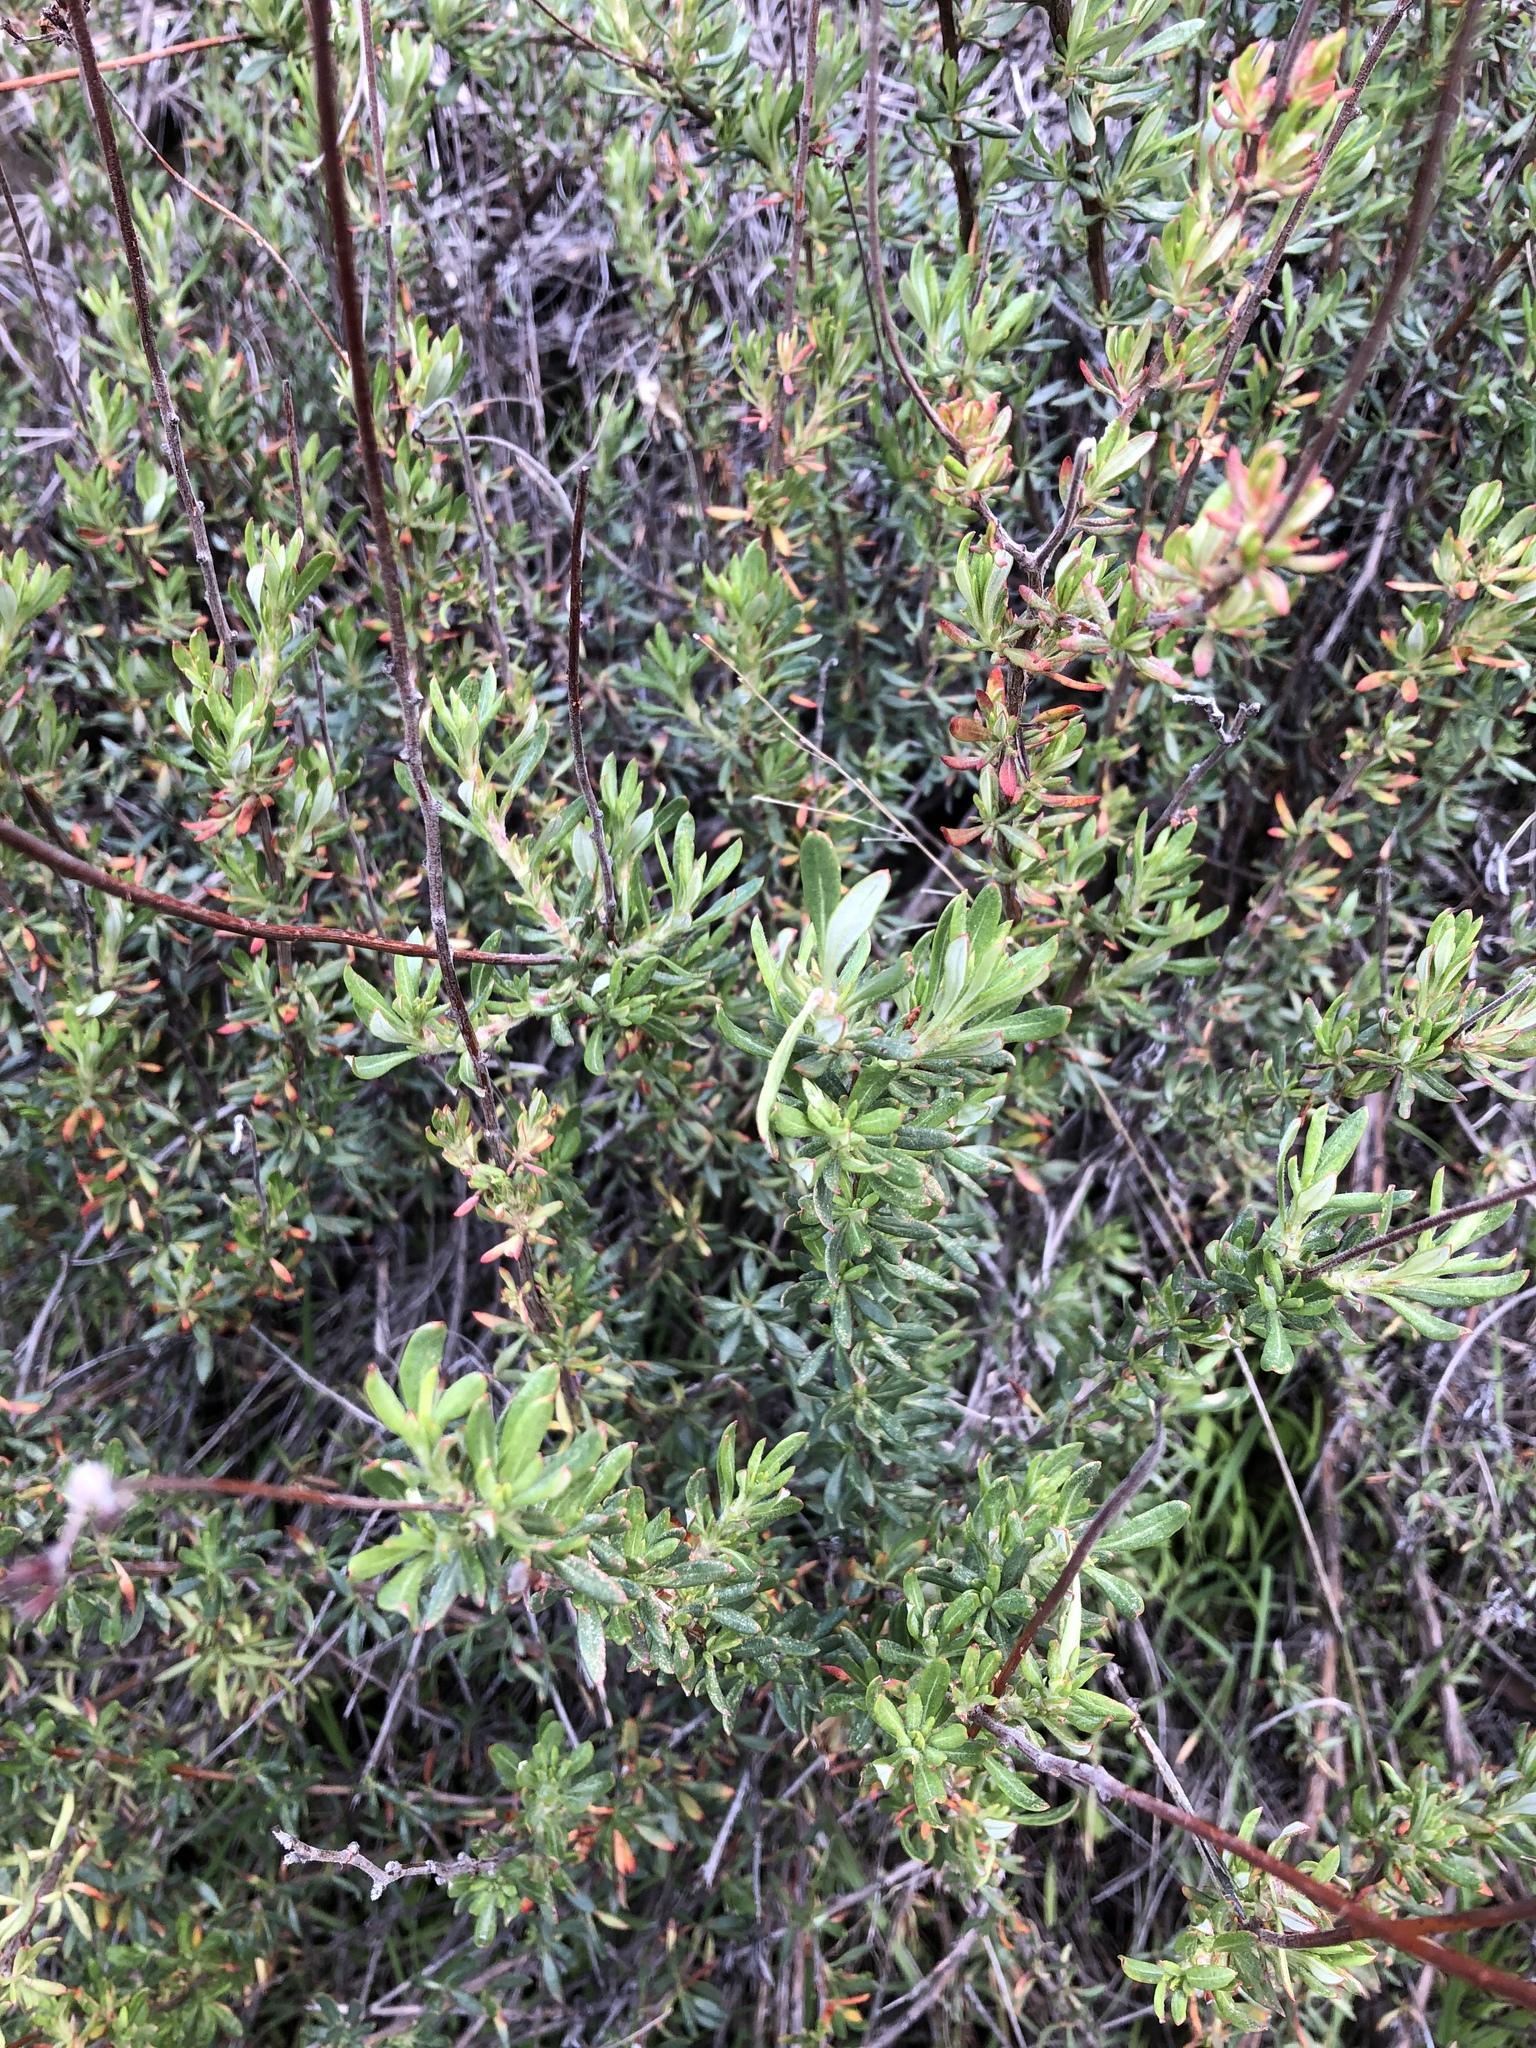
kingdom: Plantae
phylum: Tracheophyta
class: Magnoliopsida
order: Caryophyllales
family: Polygonaceae
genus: Eriogonum
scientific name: Eriogonum fasciculatum
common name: California wild buckwheat
